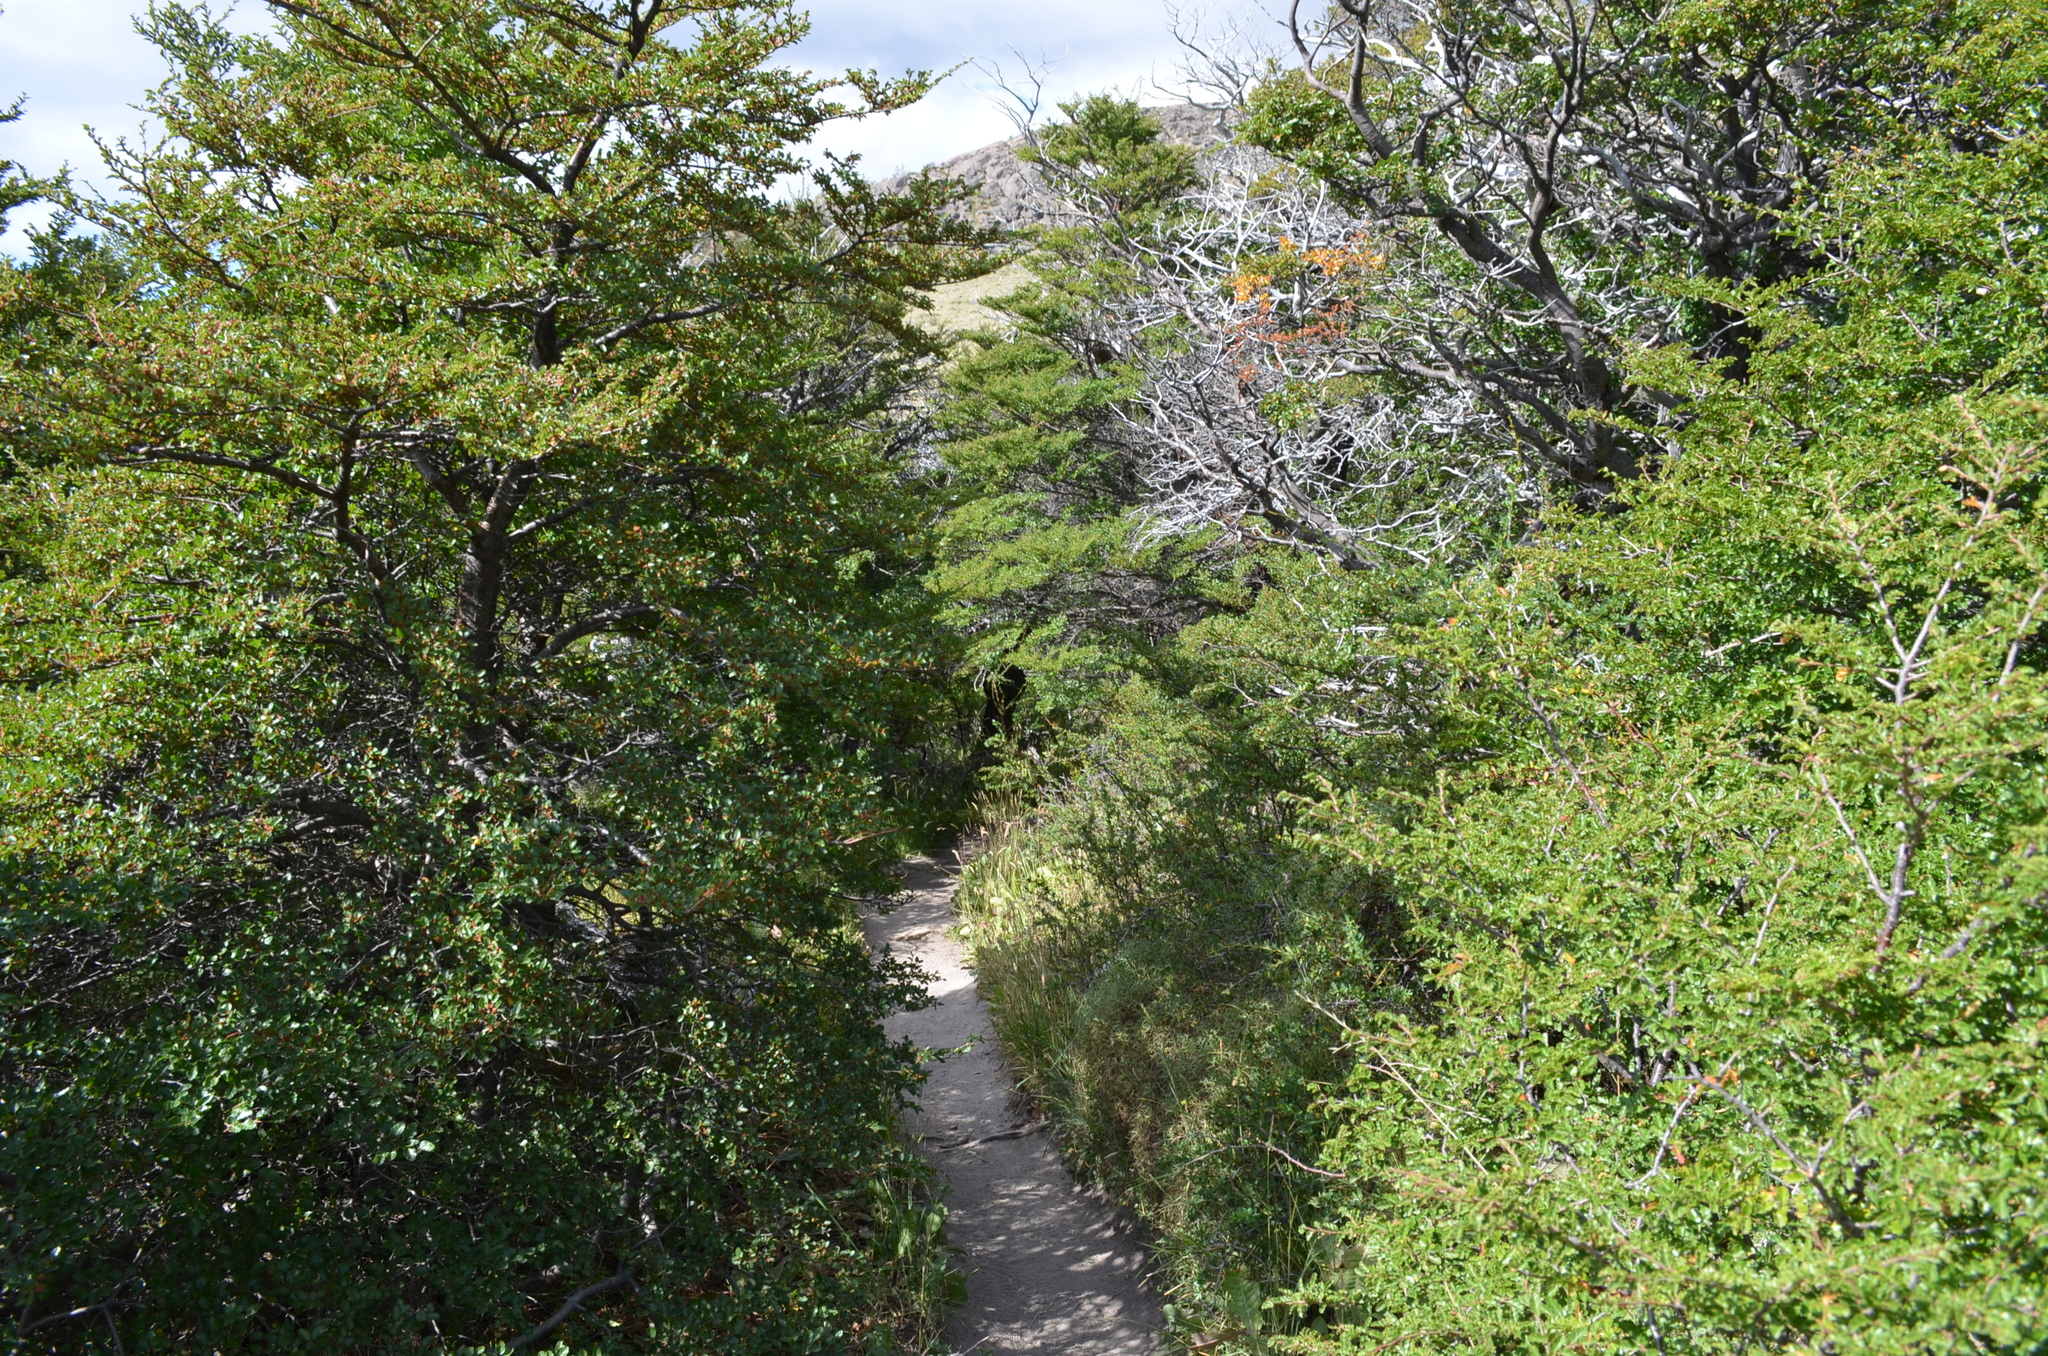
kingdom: Plantae
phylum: Tracheophyta
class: Magnoliopsida
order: Fagales
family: Nothofagaceae
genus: Nothofagus
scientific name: Nothofagus antarctica
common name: Antarctic beech
